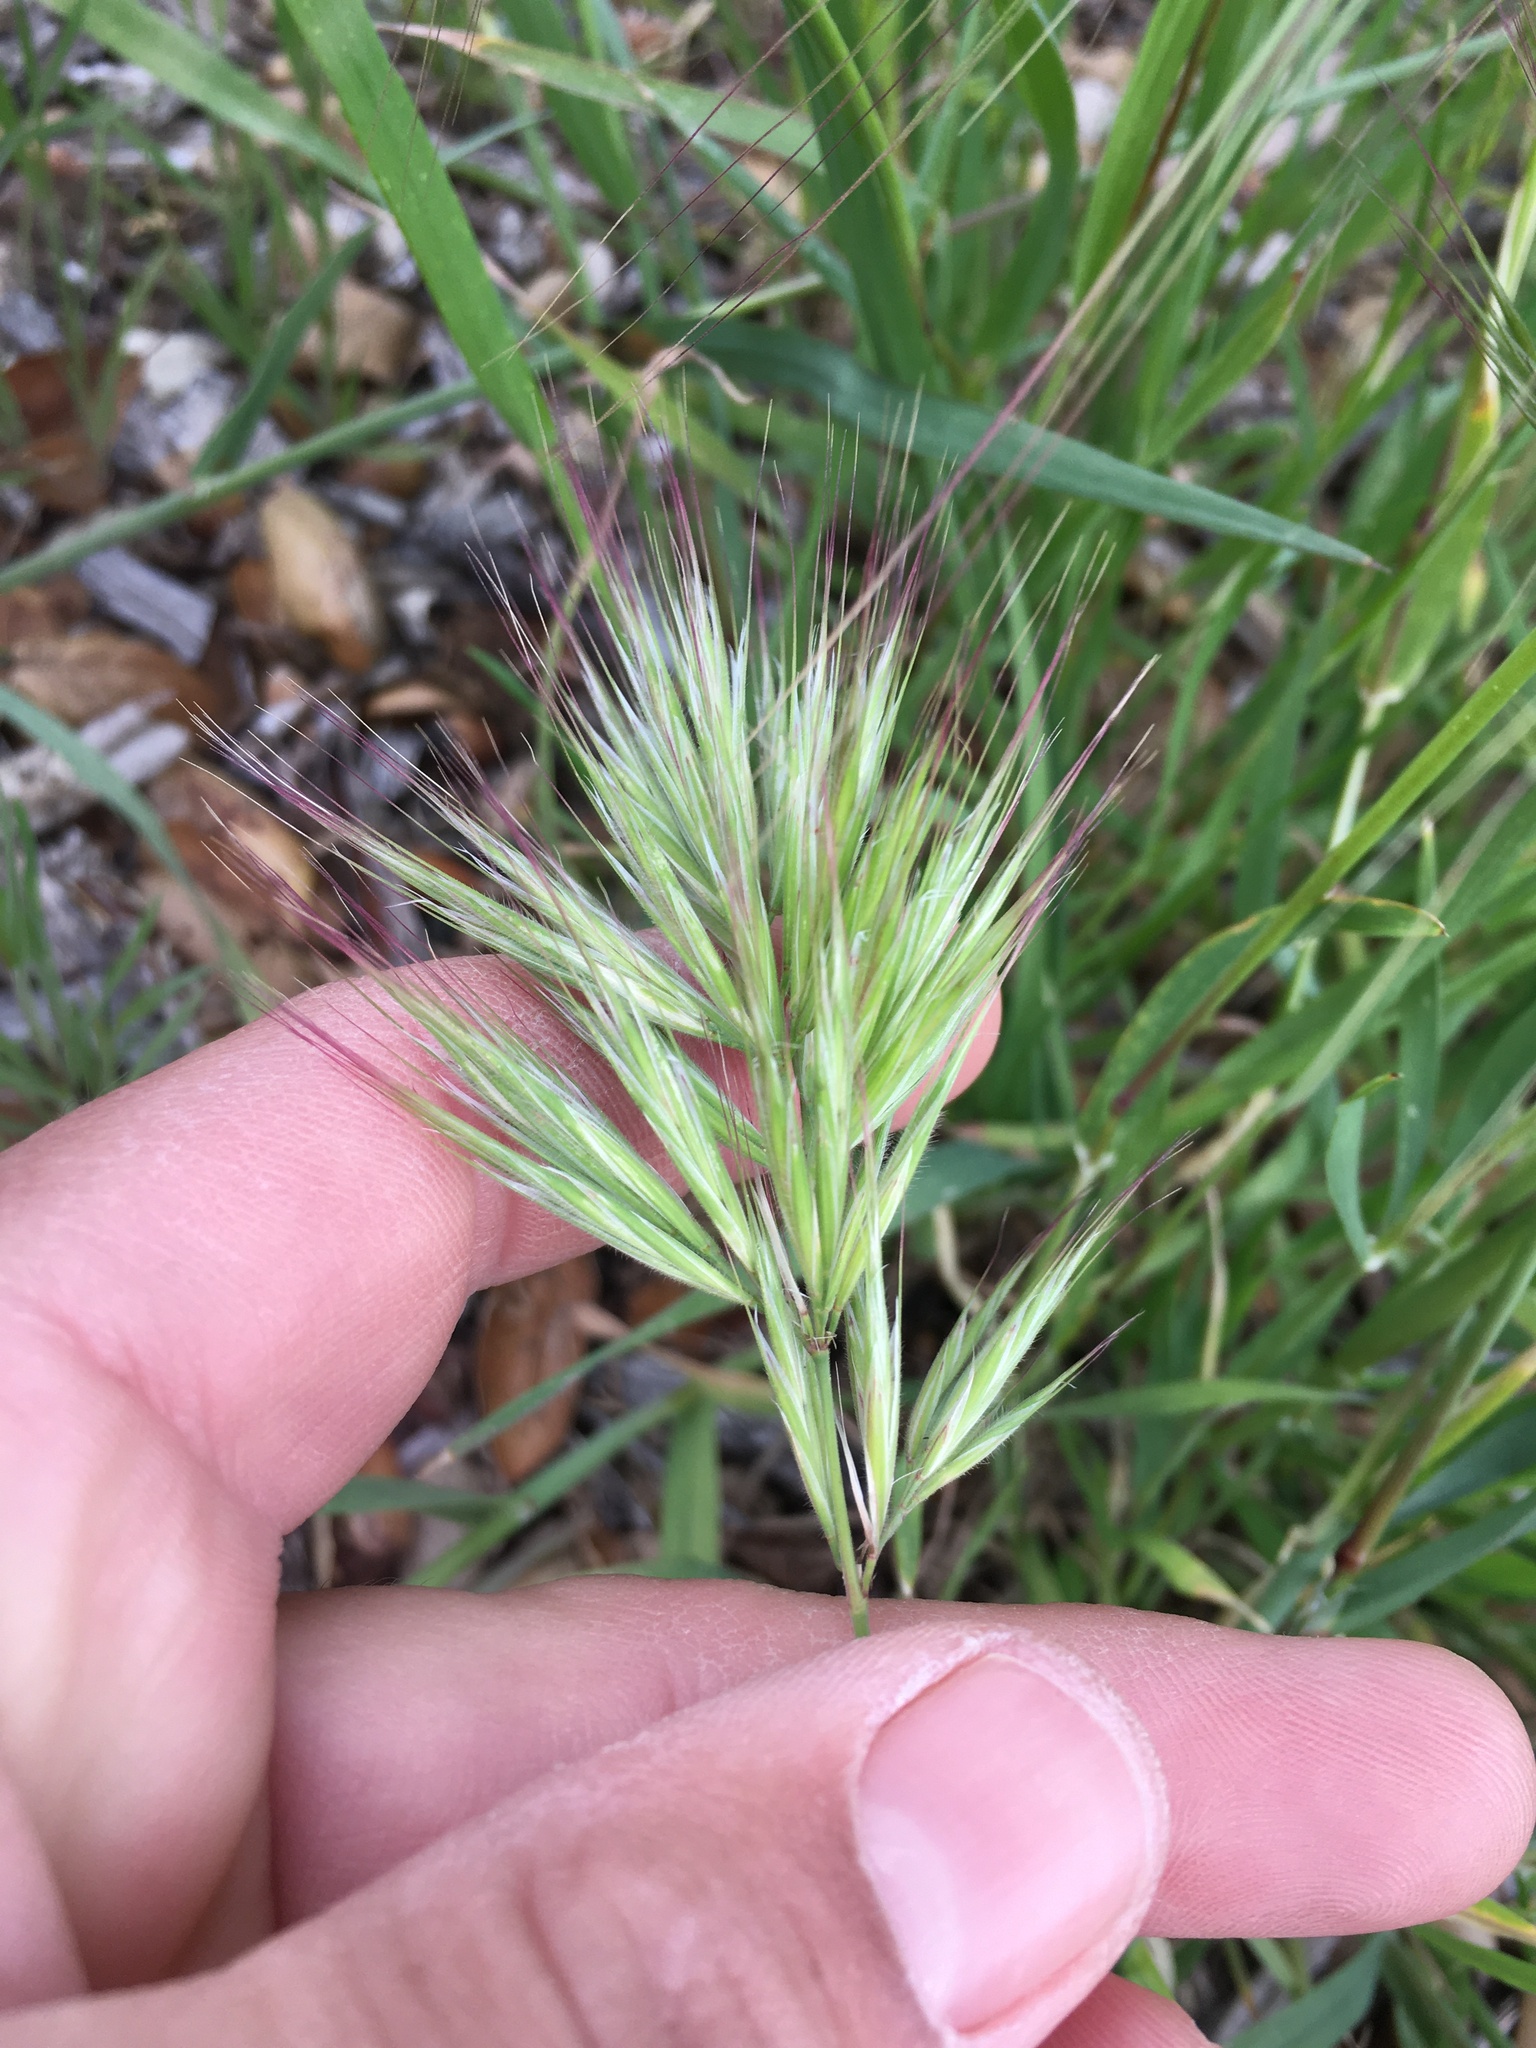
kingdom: Plantae
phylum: Tracheophyta
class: Liliopsida
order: Poales
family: Poaceae
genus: Bromus
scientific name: Bromus rubens
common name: Red brome
